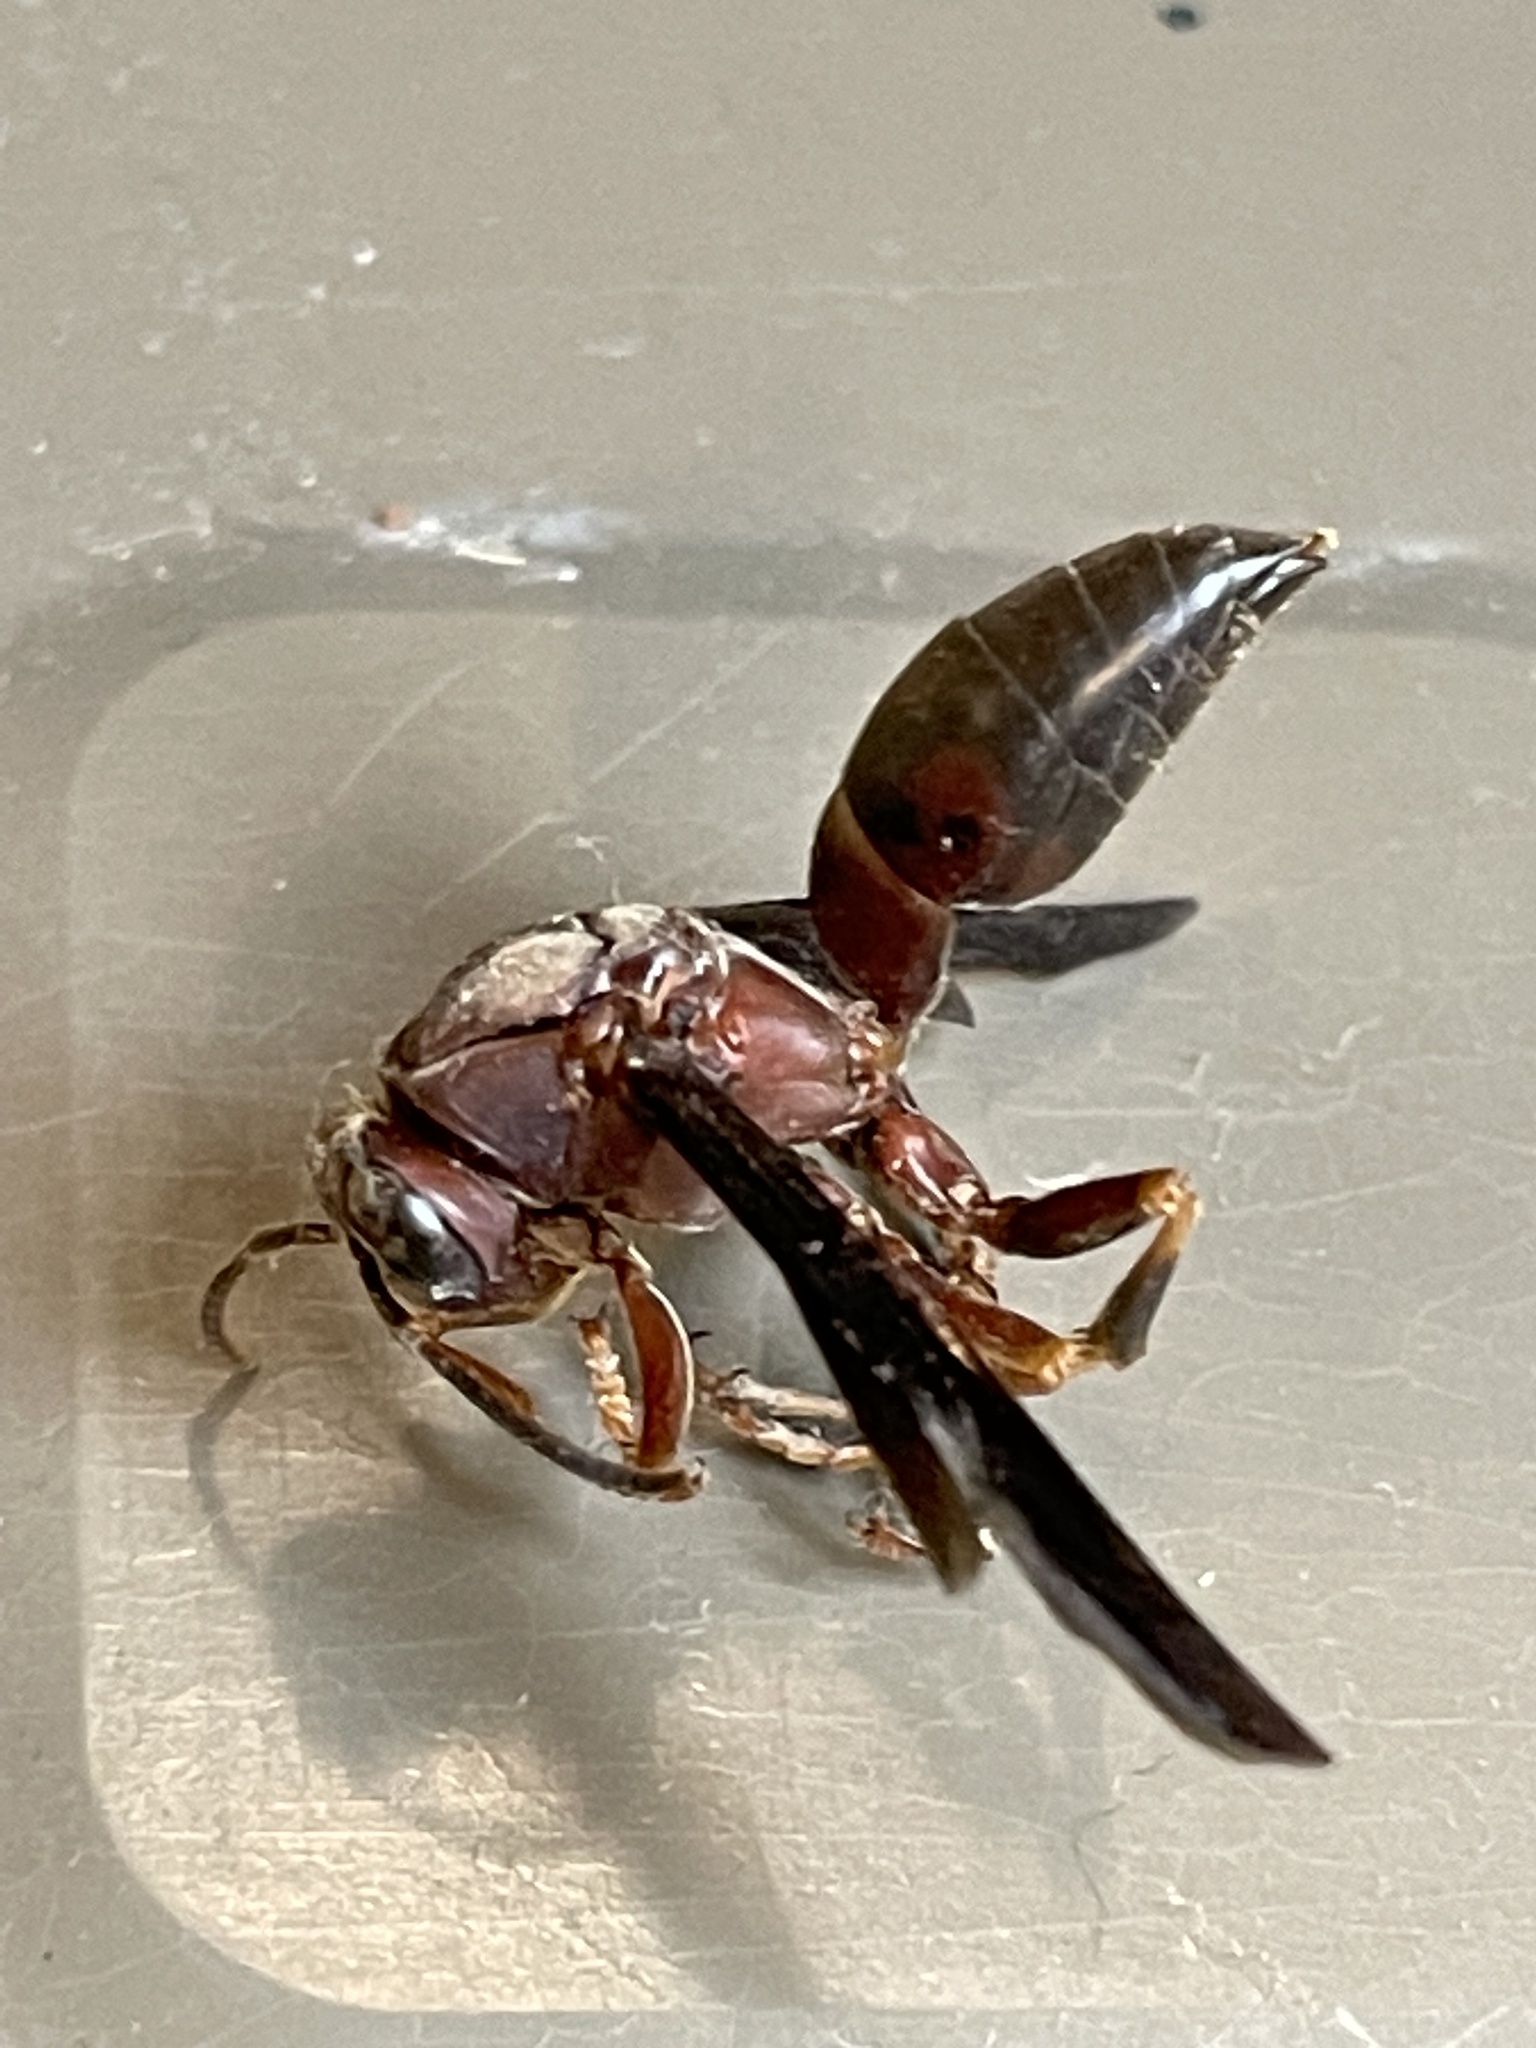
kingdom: Animalia
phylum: Arthropoda
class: Insecta
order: Hymenoptera
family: Eumenidae
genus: Polistes
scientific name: Polistes metricus
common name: Metric paper wasp
